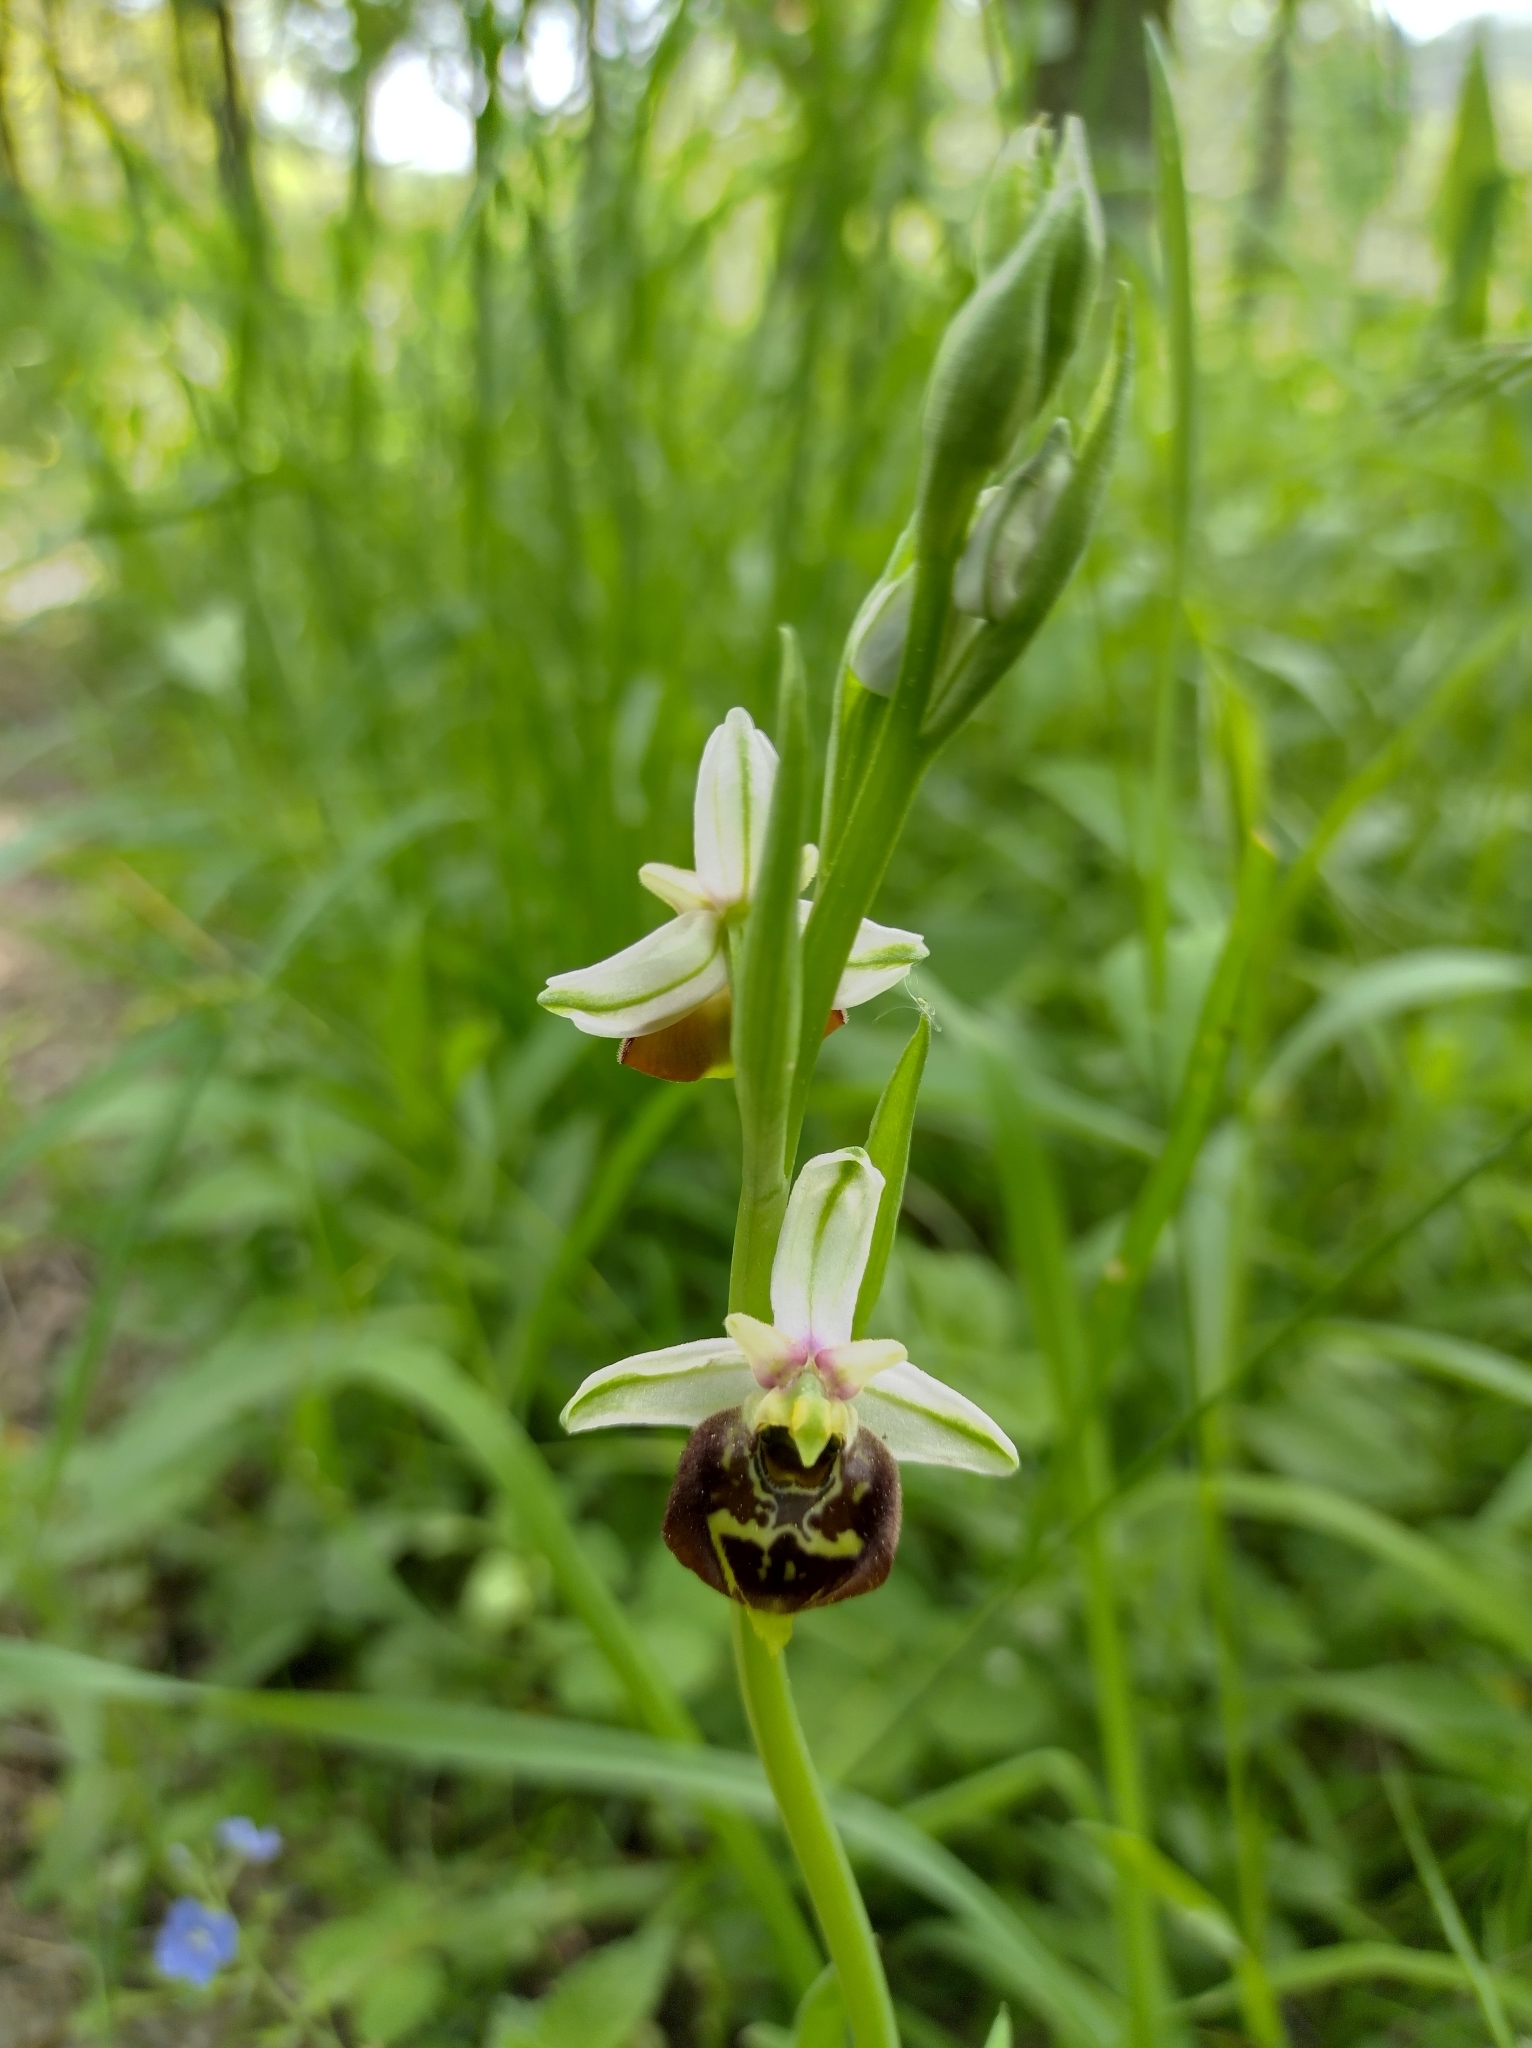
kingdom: Plantae
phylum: Tracheophyta
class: Liliopsida
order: Asparagales
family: Orchidaceae
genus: Ophrys
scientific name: Ophrys holosericea
